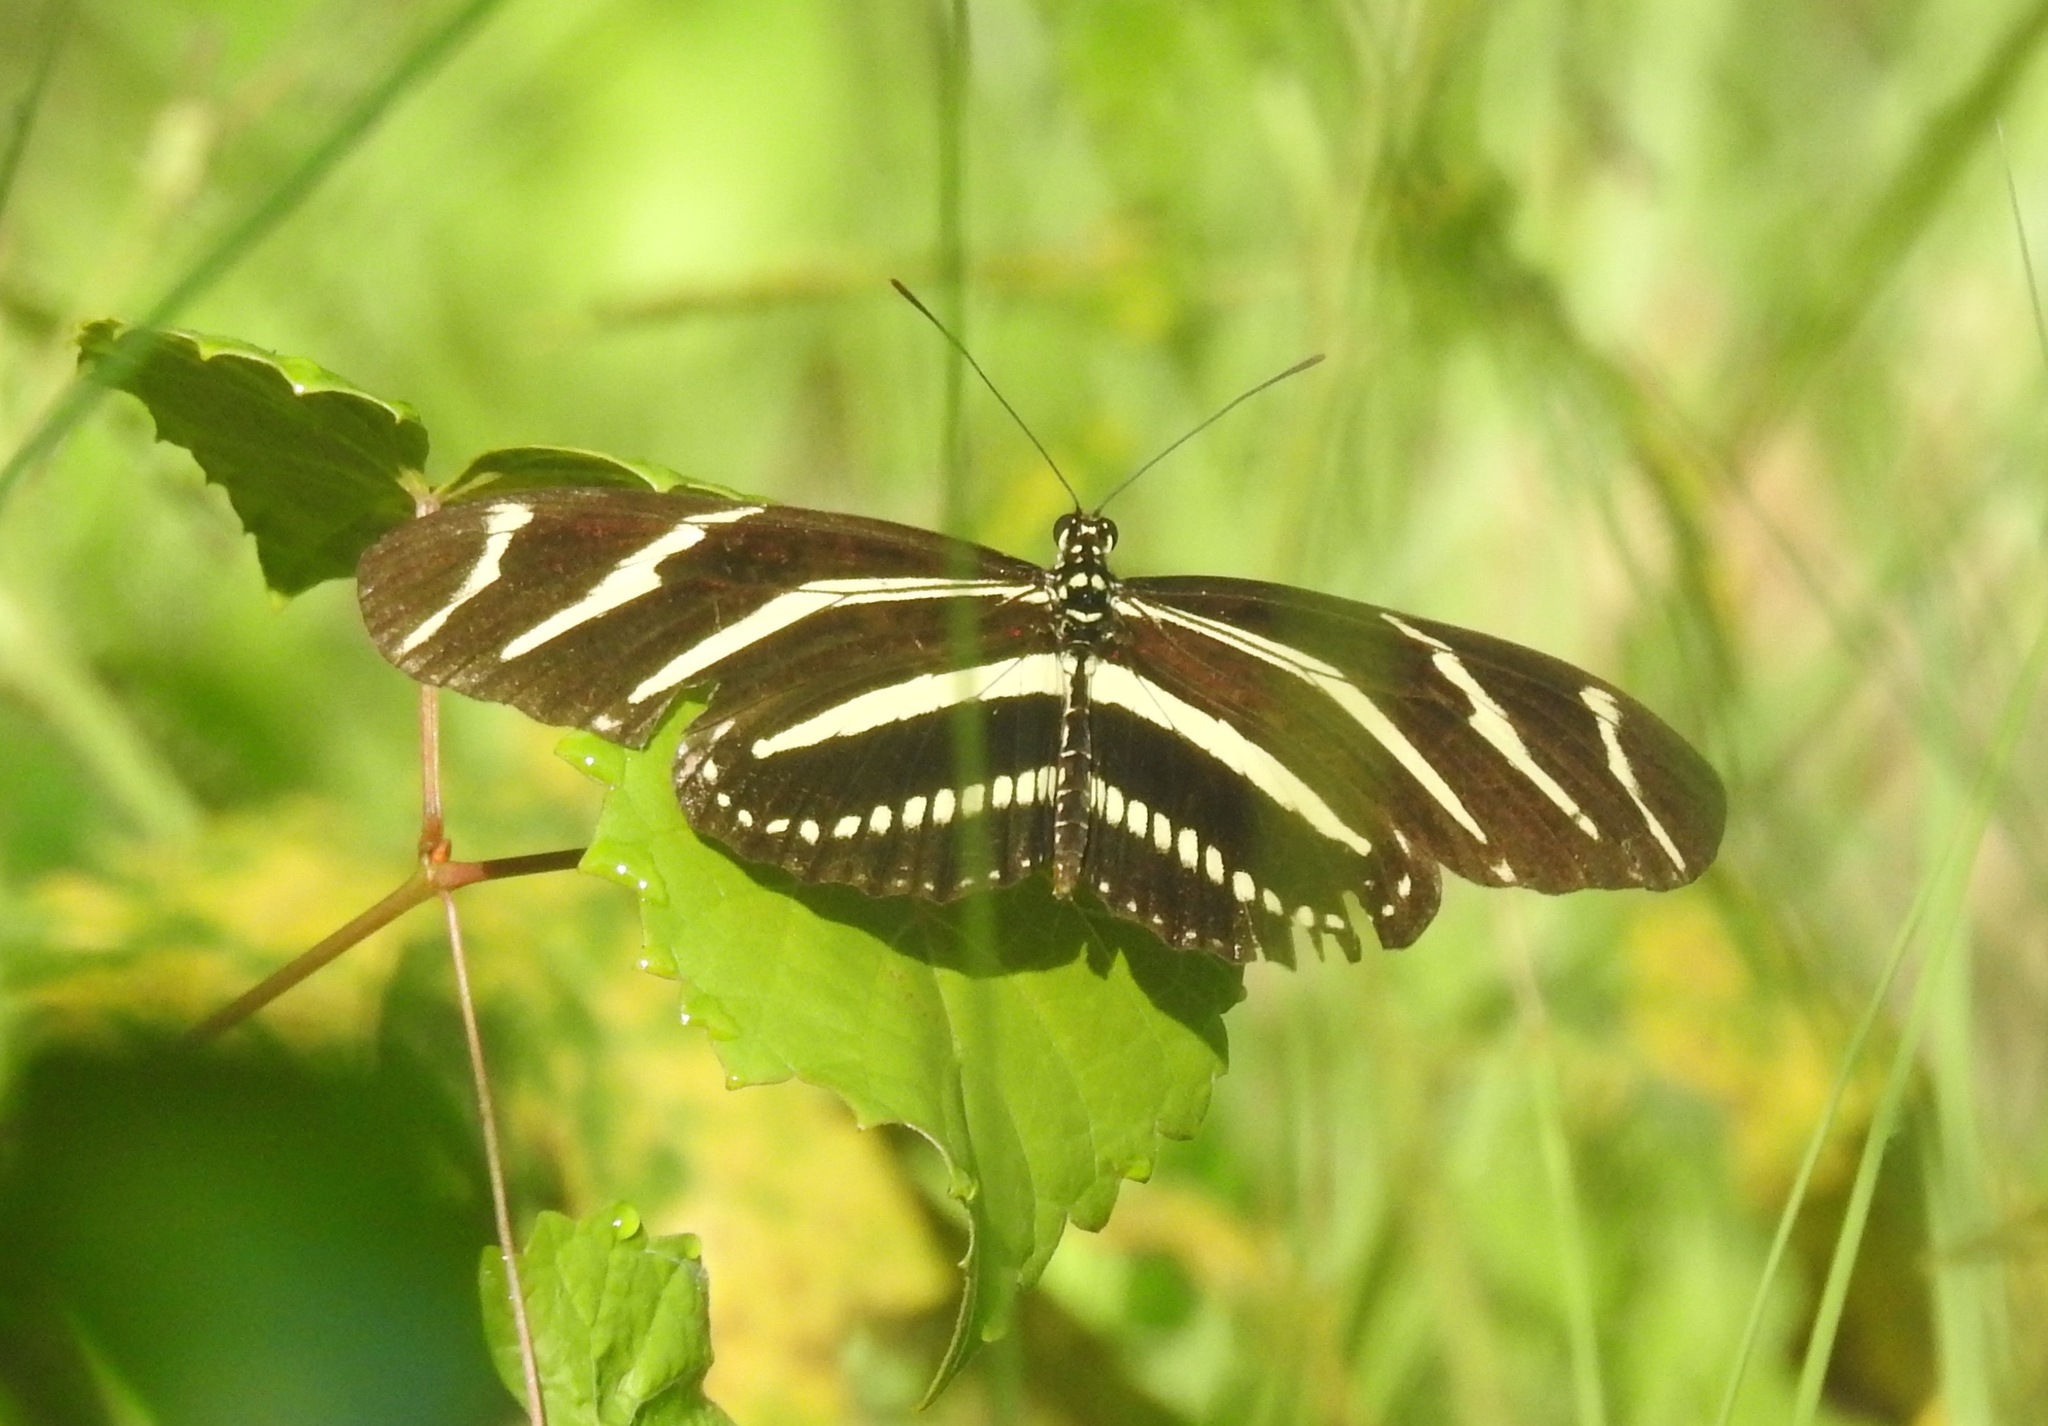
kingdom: Animalia
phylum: Arthropoda
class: Insecta
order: Lepidoptera
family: Nymphalidae
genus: Heliconius
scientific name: Heliconius charithonia
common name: Zebra long wing
